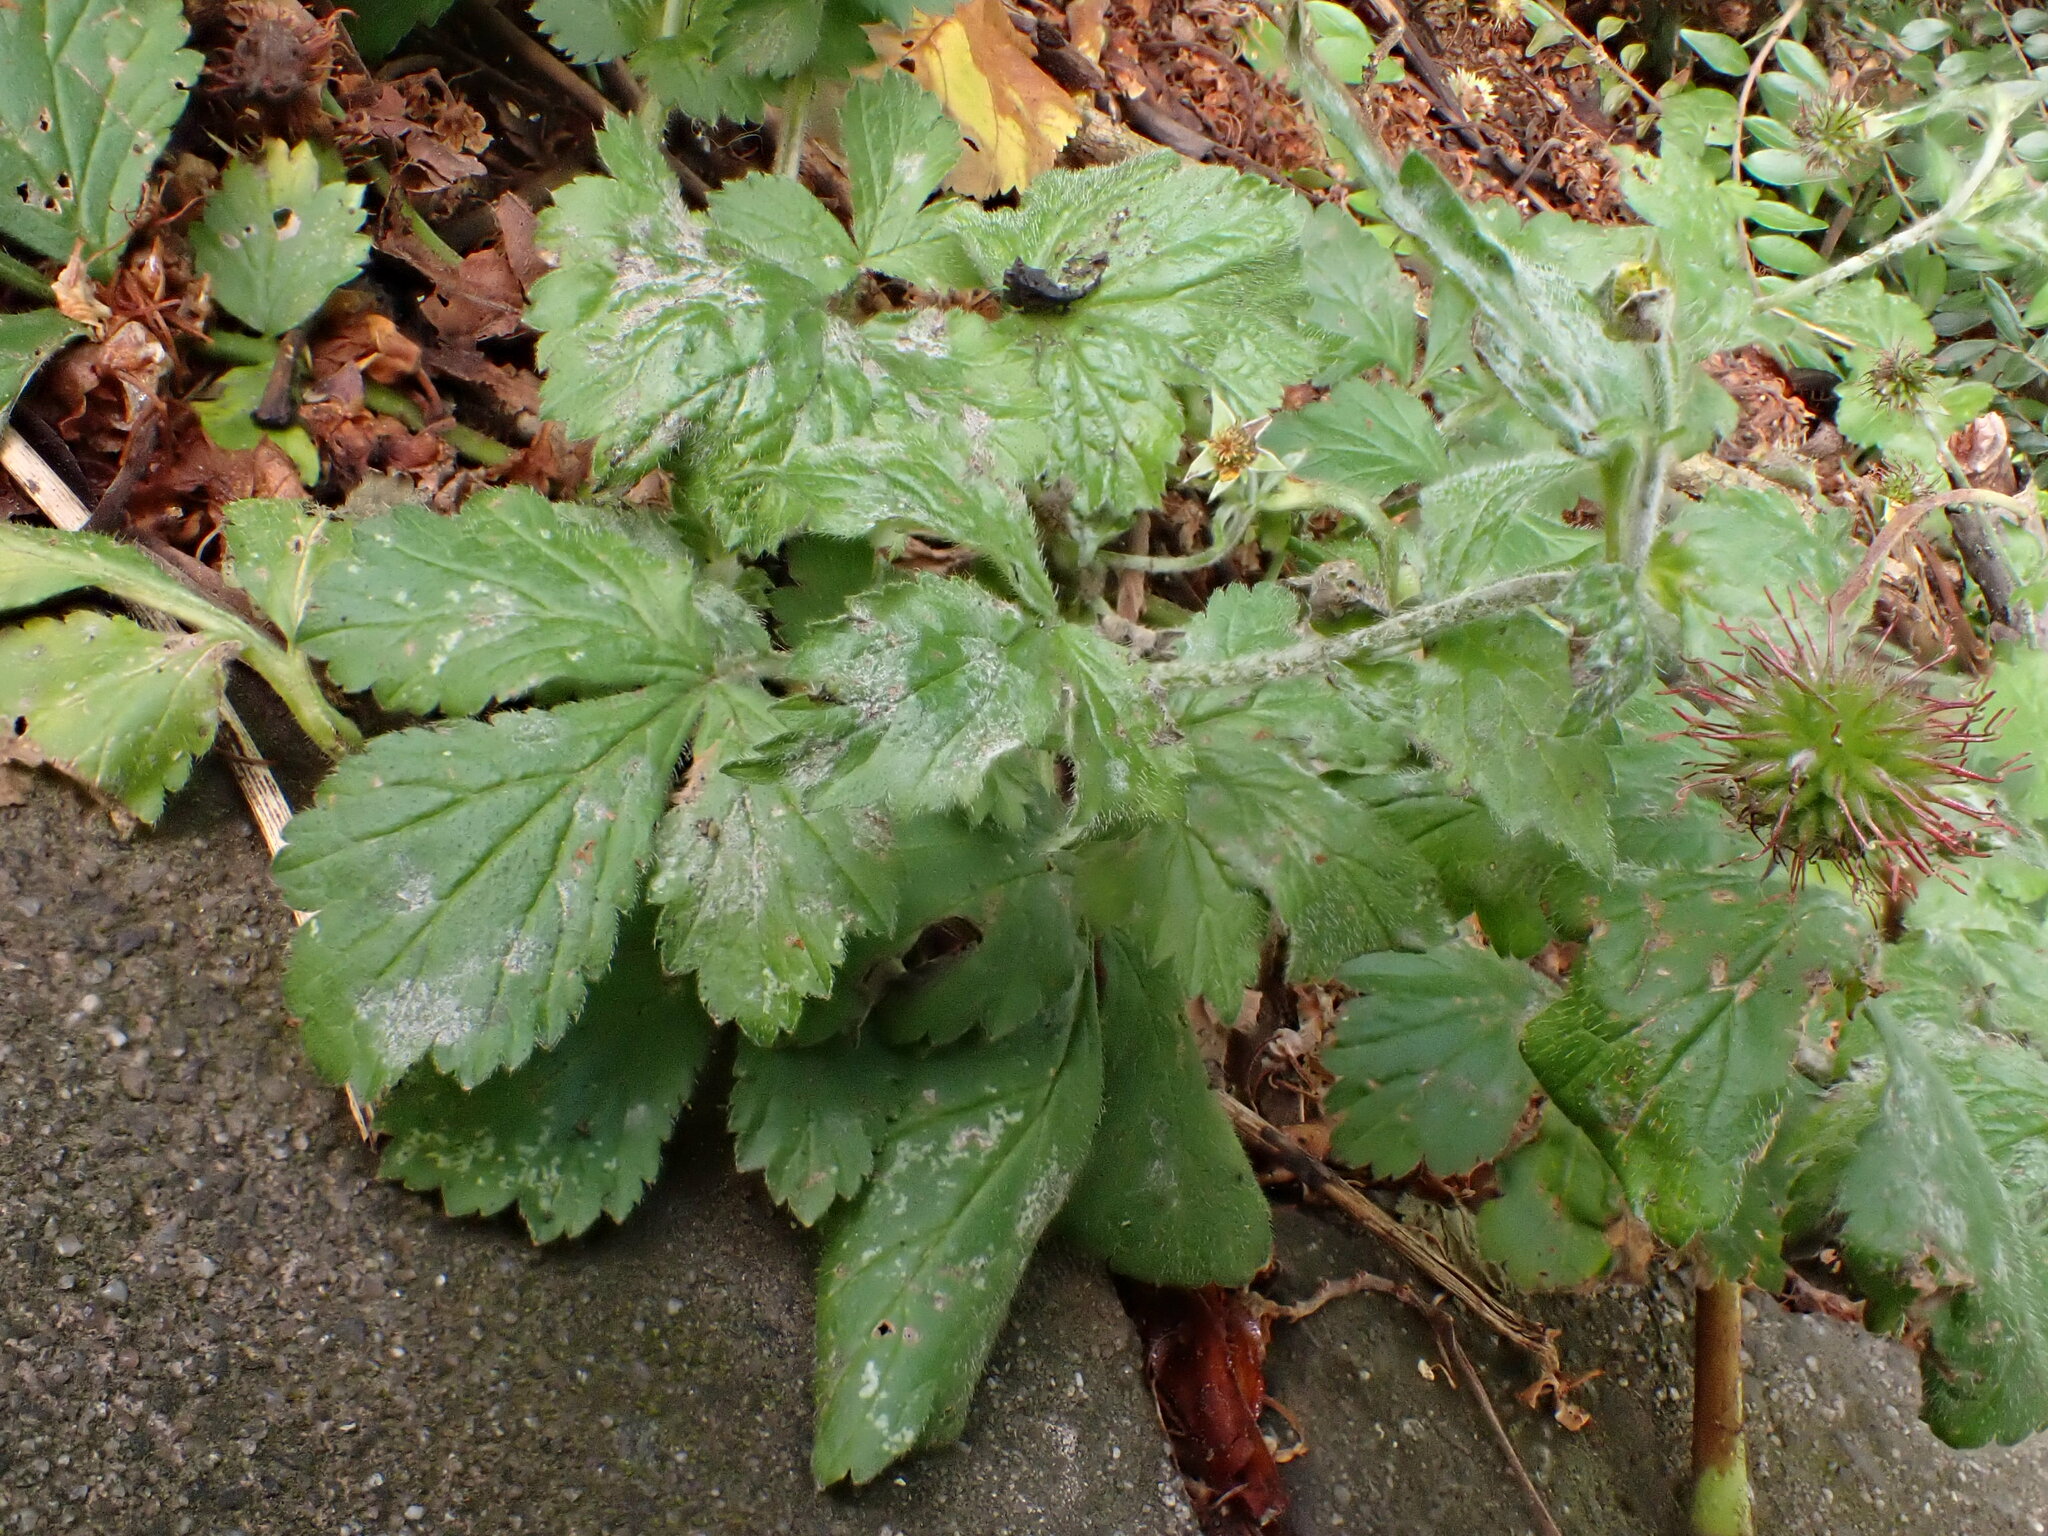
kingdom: Fungi
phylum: Ascomycota
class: Leotiomycetes
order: Helotiales
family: Erysiphaceae
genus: Podosphaera
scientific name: Podosphaera aphanis
